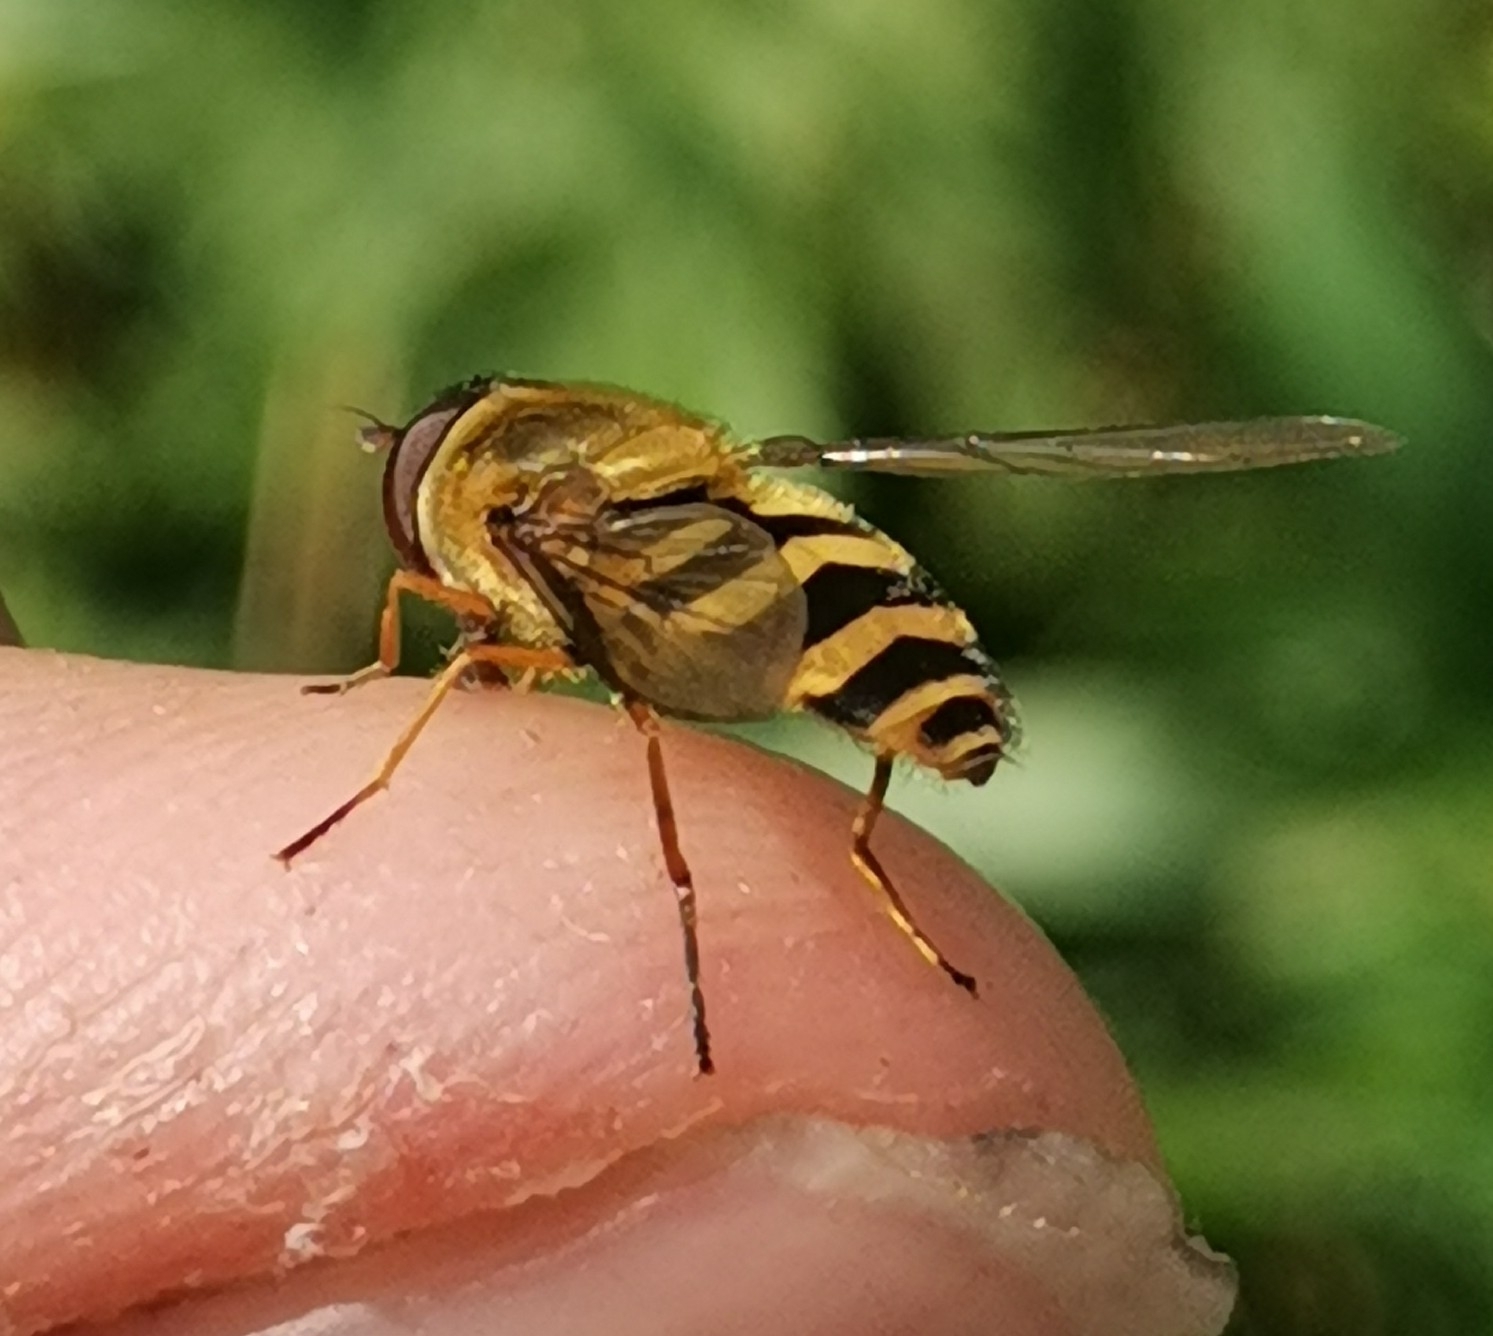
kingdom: Animalia
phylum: Arthropoda
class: Insecta
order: Diptera
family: Syrphidae
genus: Syrphus
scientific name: Syrphus
